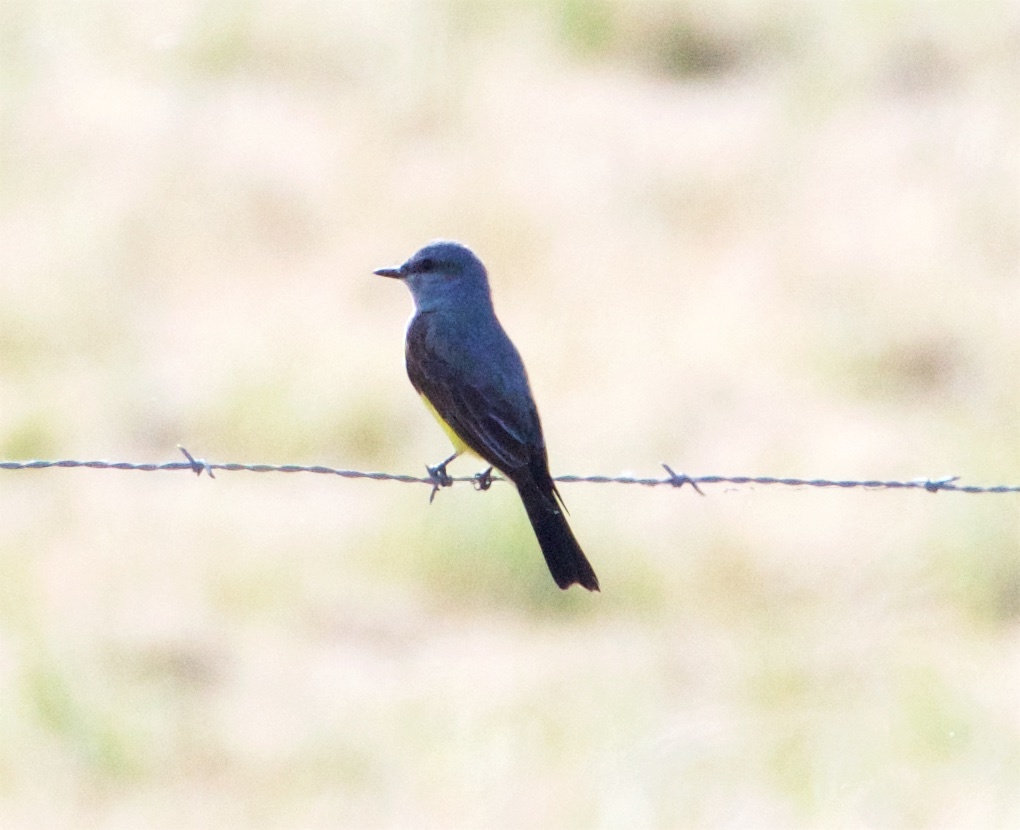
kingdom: Animalia
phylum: Chordata
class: Aves
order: Passeriformes
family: Tyrannidae
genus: Tyrannus
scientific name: Tyrannus verticalis
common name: Western kingbird
